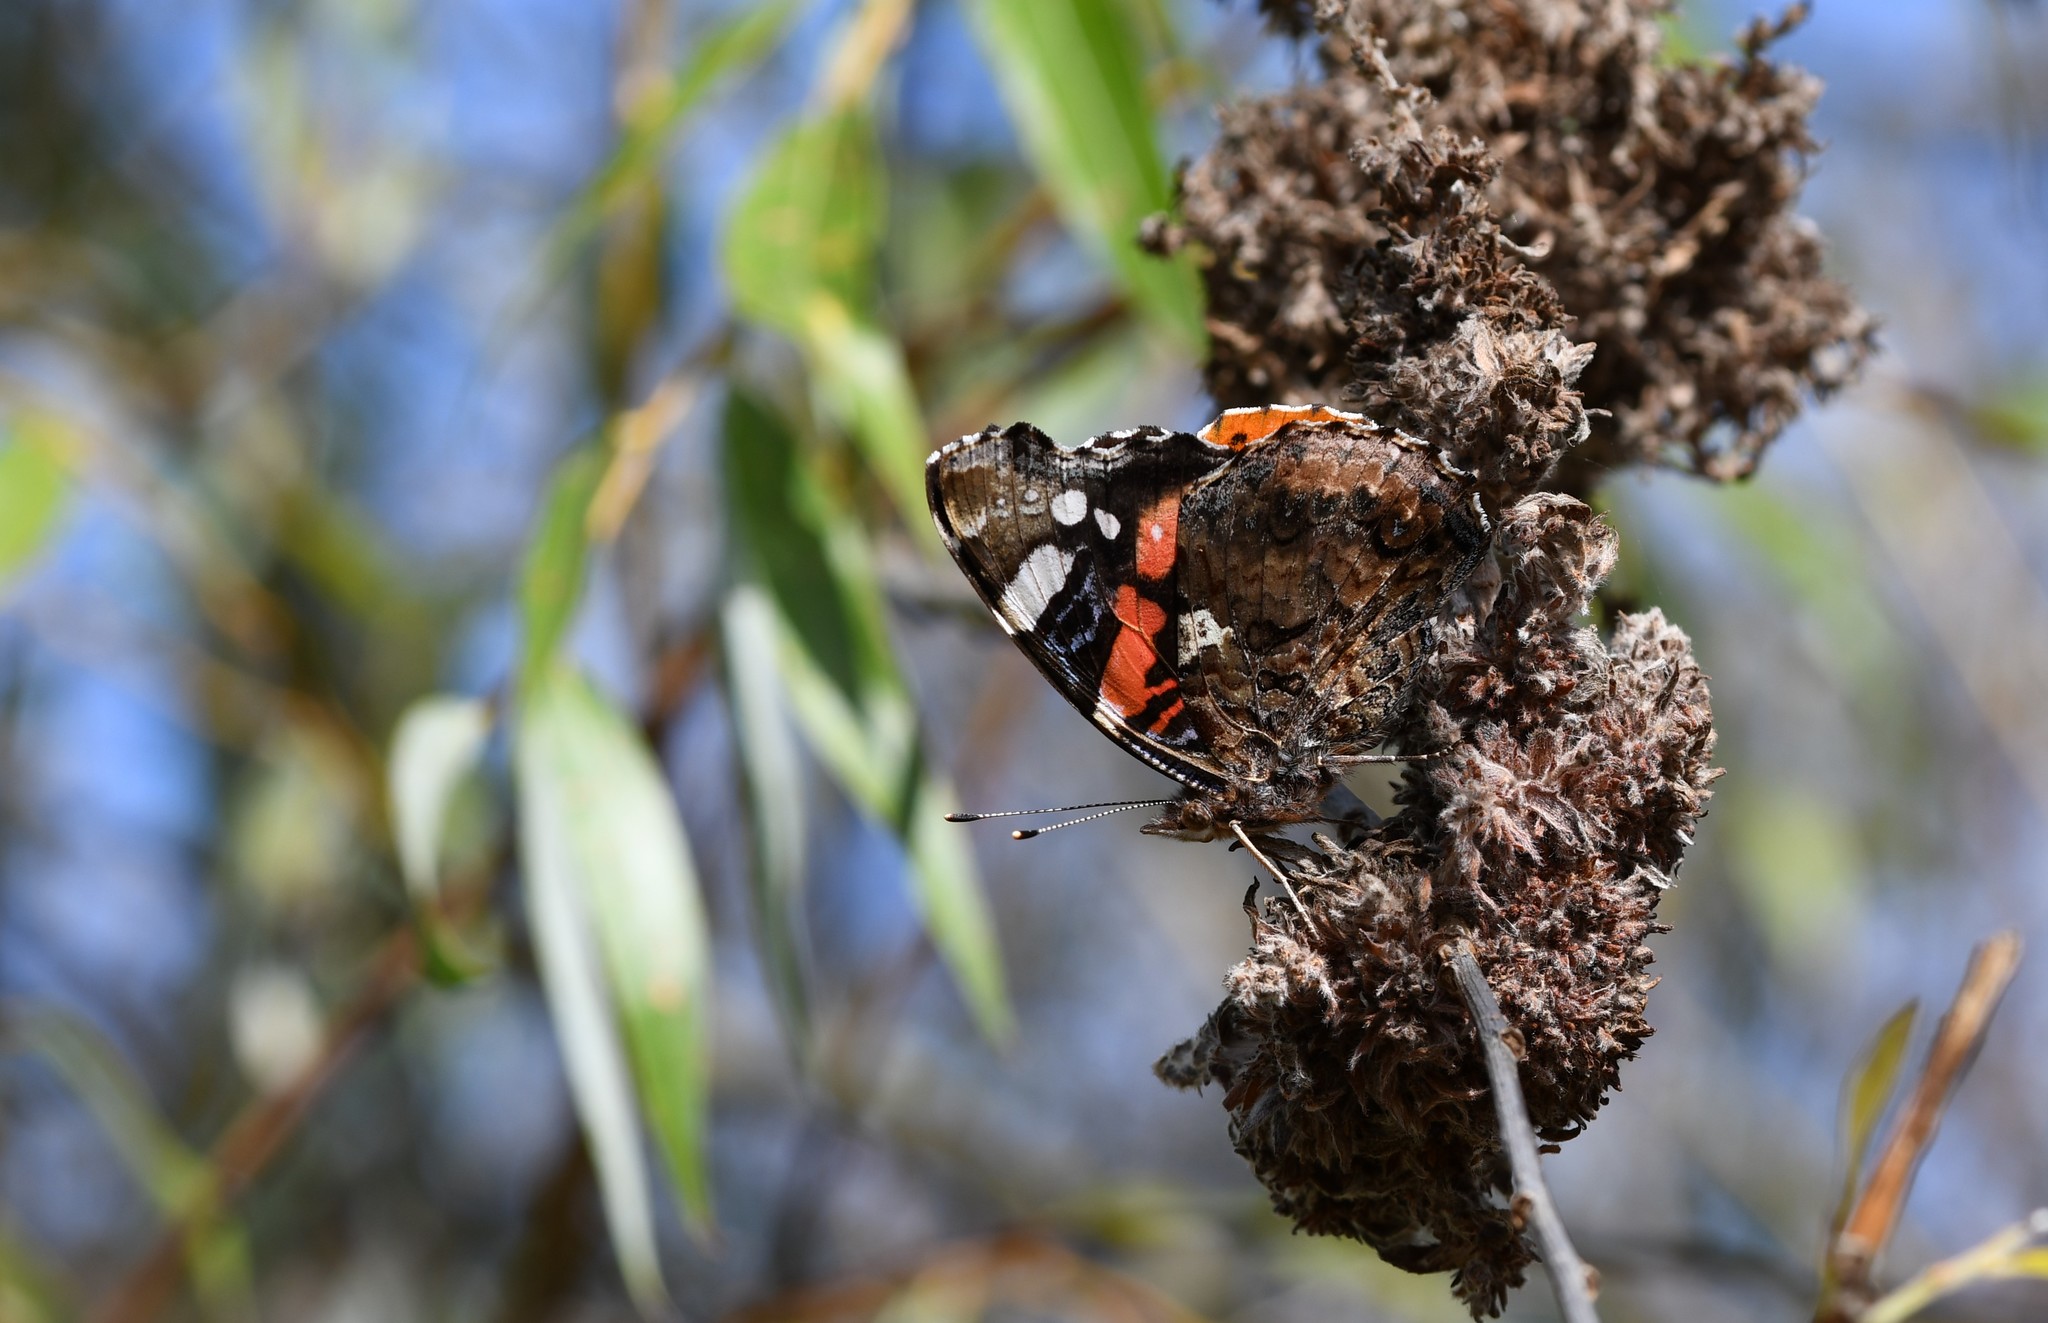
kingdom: Animalia
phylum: Arthropoda
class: Insecta
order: Lepidoptera
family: Nymphalidae
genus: Vanessa
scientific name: Vanessa atalanta
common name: Red admiral
